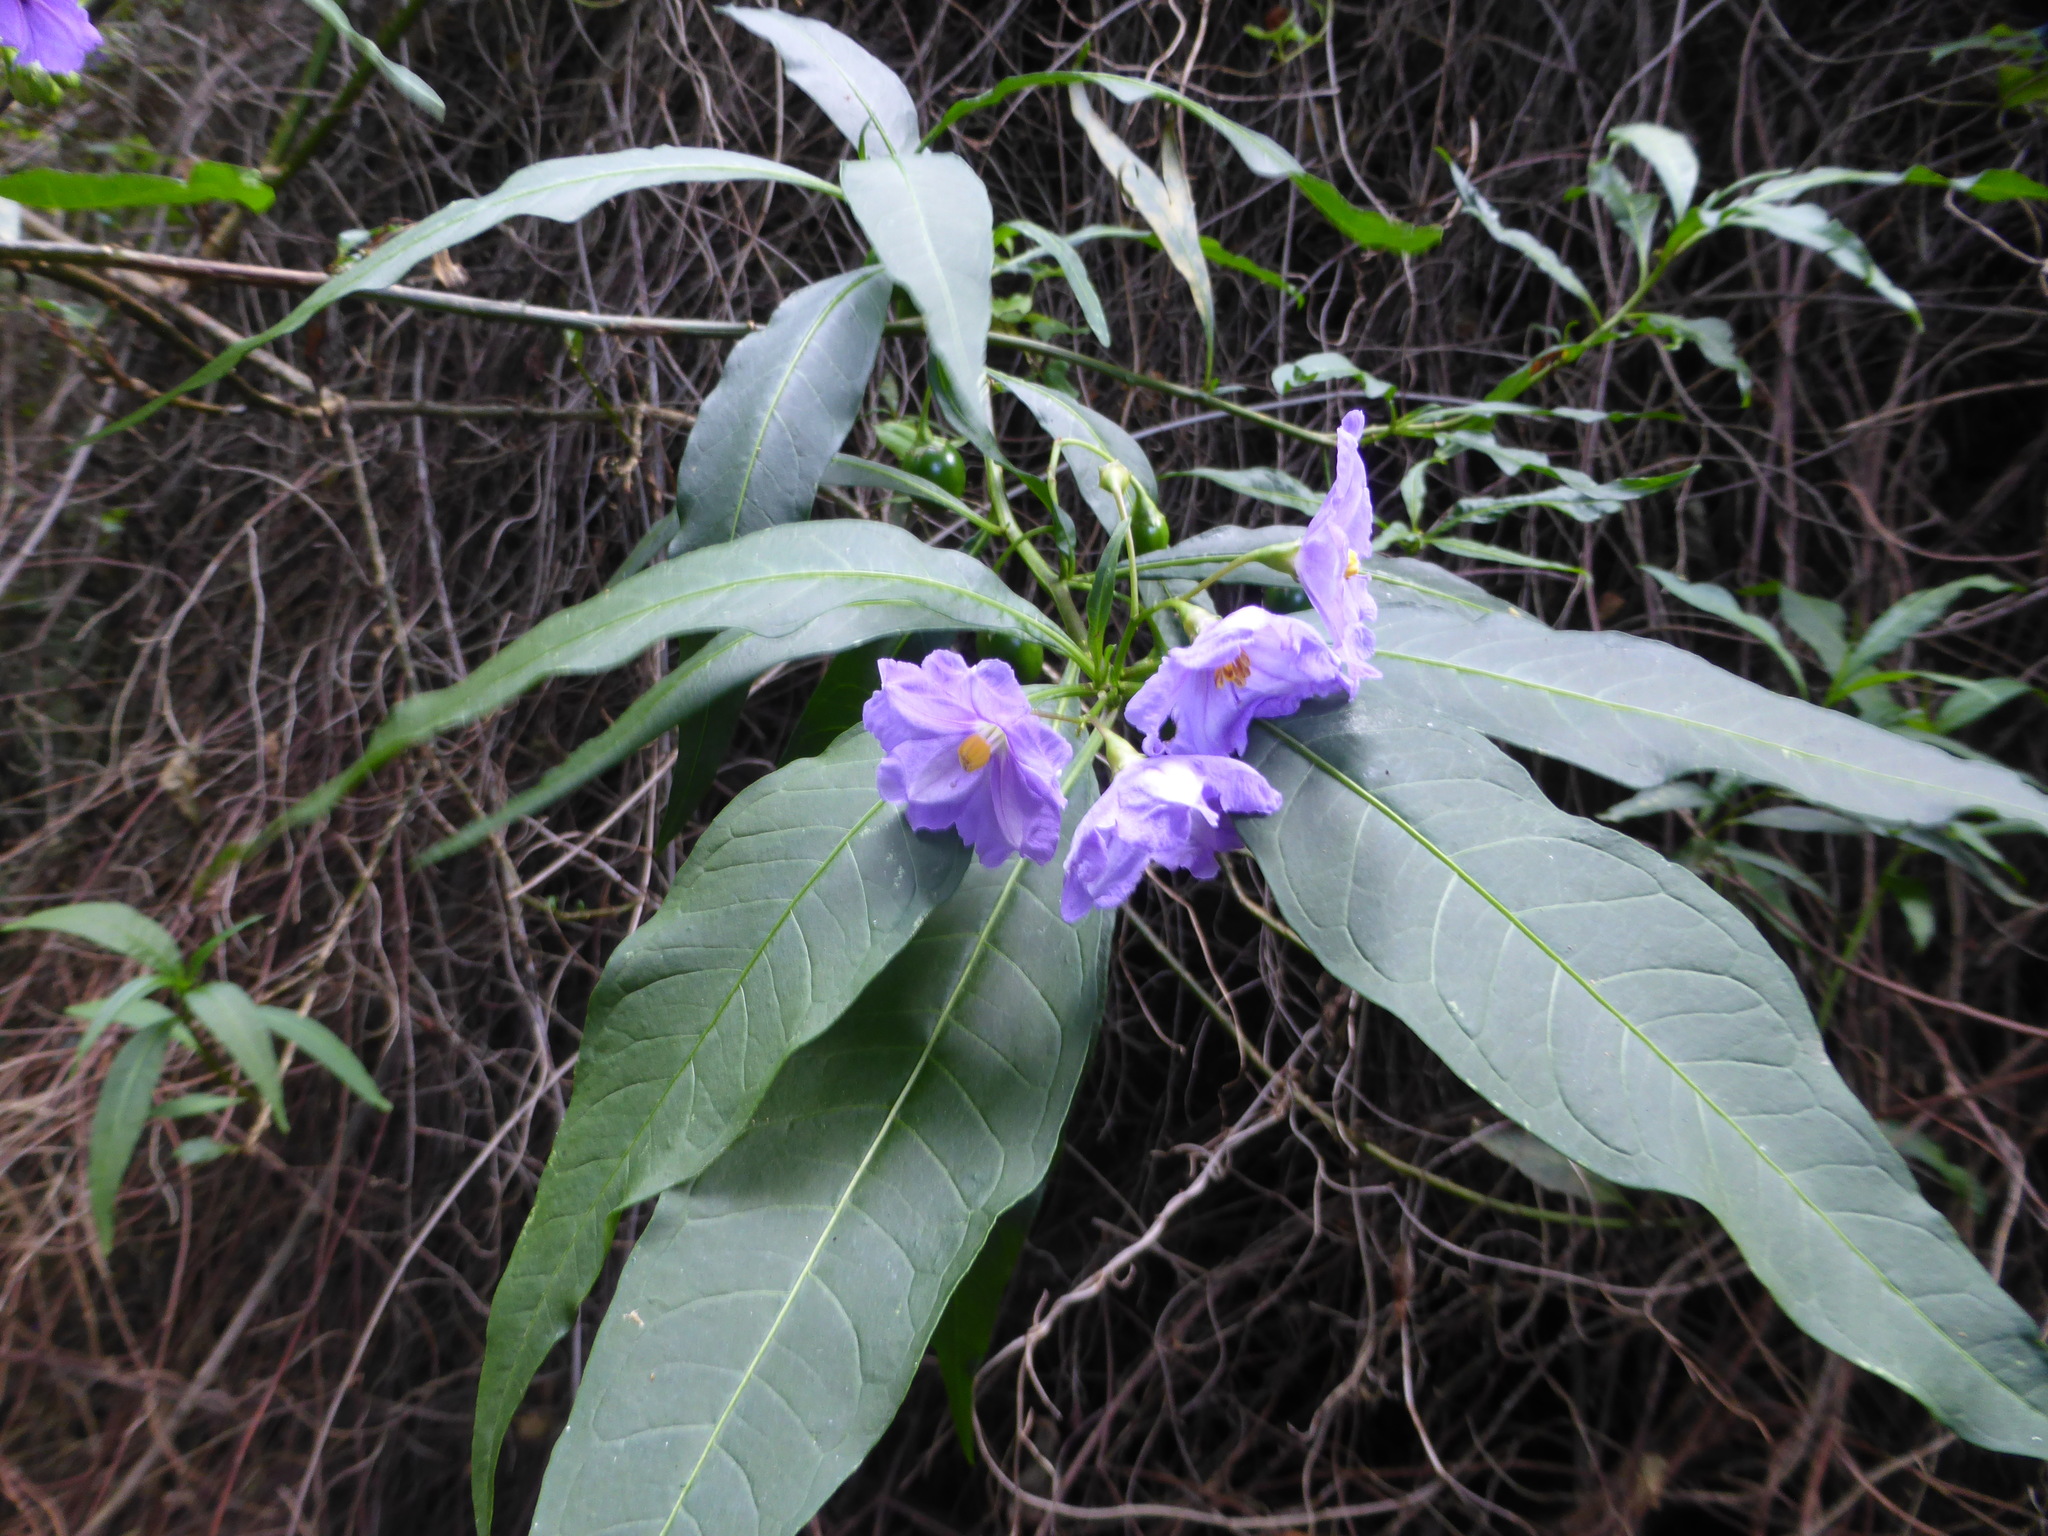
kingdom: Plantae
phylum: Tracheophyta
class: Magnoliopsida
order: Solanales
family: Solanaceae
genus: Solanum
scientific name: Solanum laciniatum
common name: Kangaroo-apple
